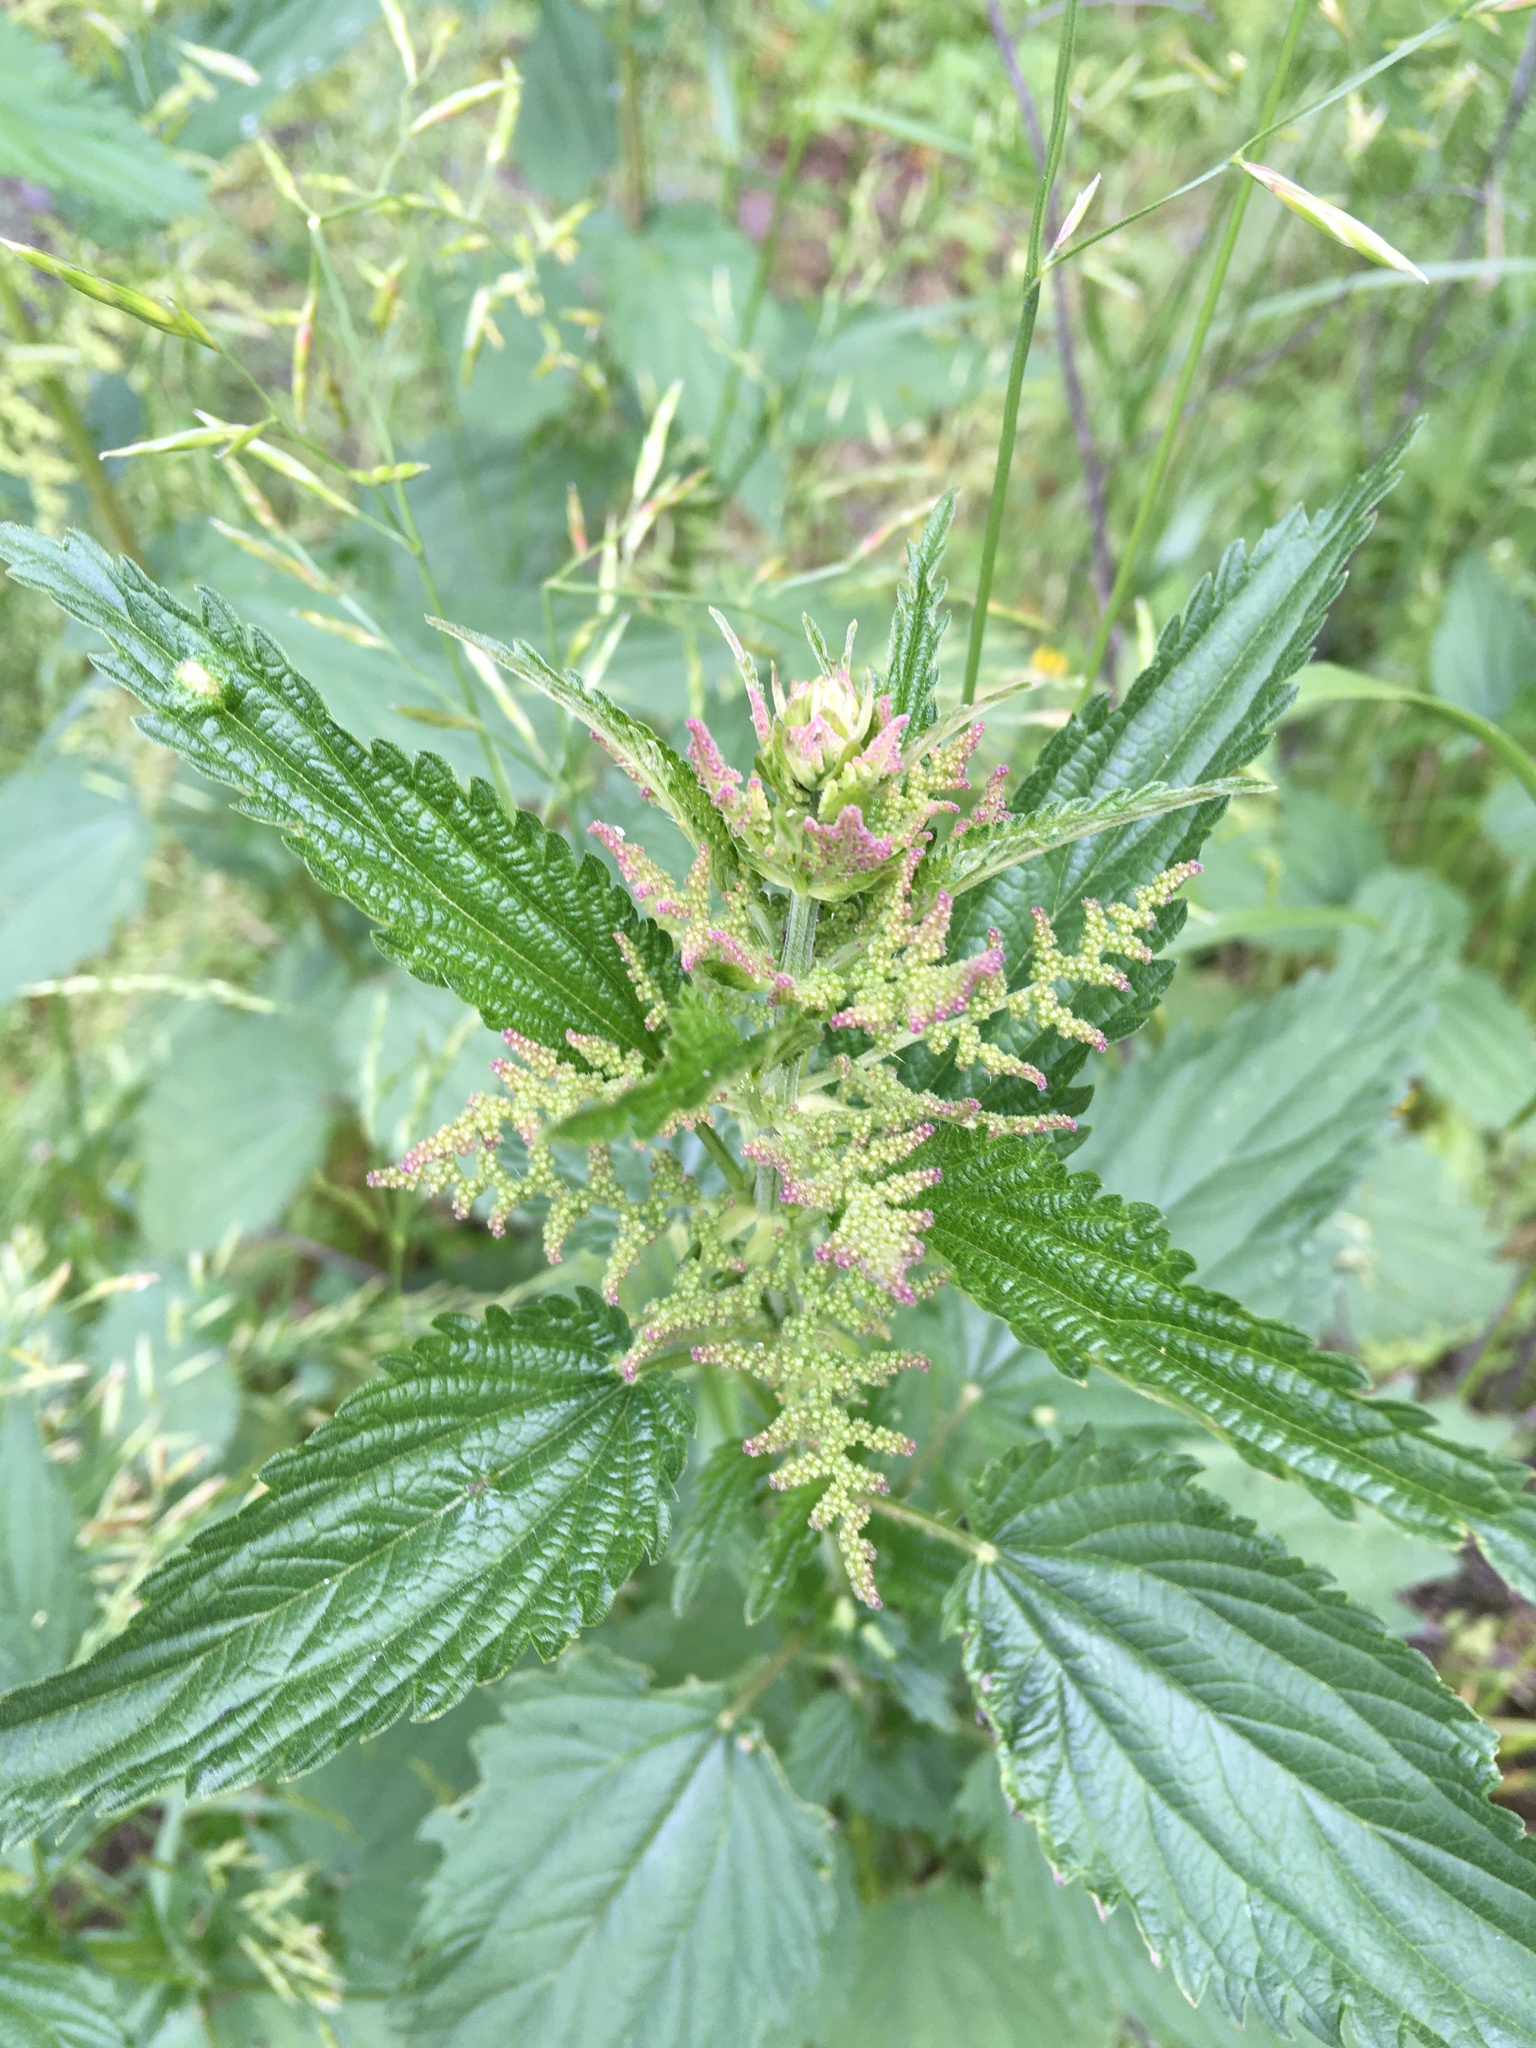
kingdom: Plantae
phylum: Tracheophyta
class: Magnoliopsida
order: Rosales
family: Urticaceae
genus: Urtica
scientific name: Urtica dioica
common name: Common nettle
